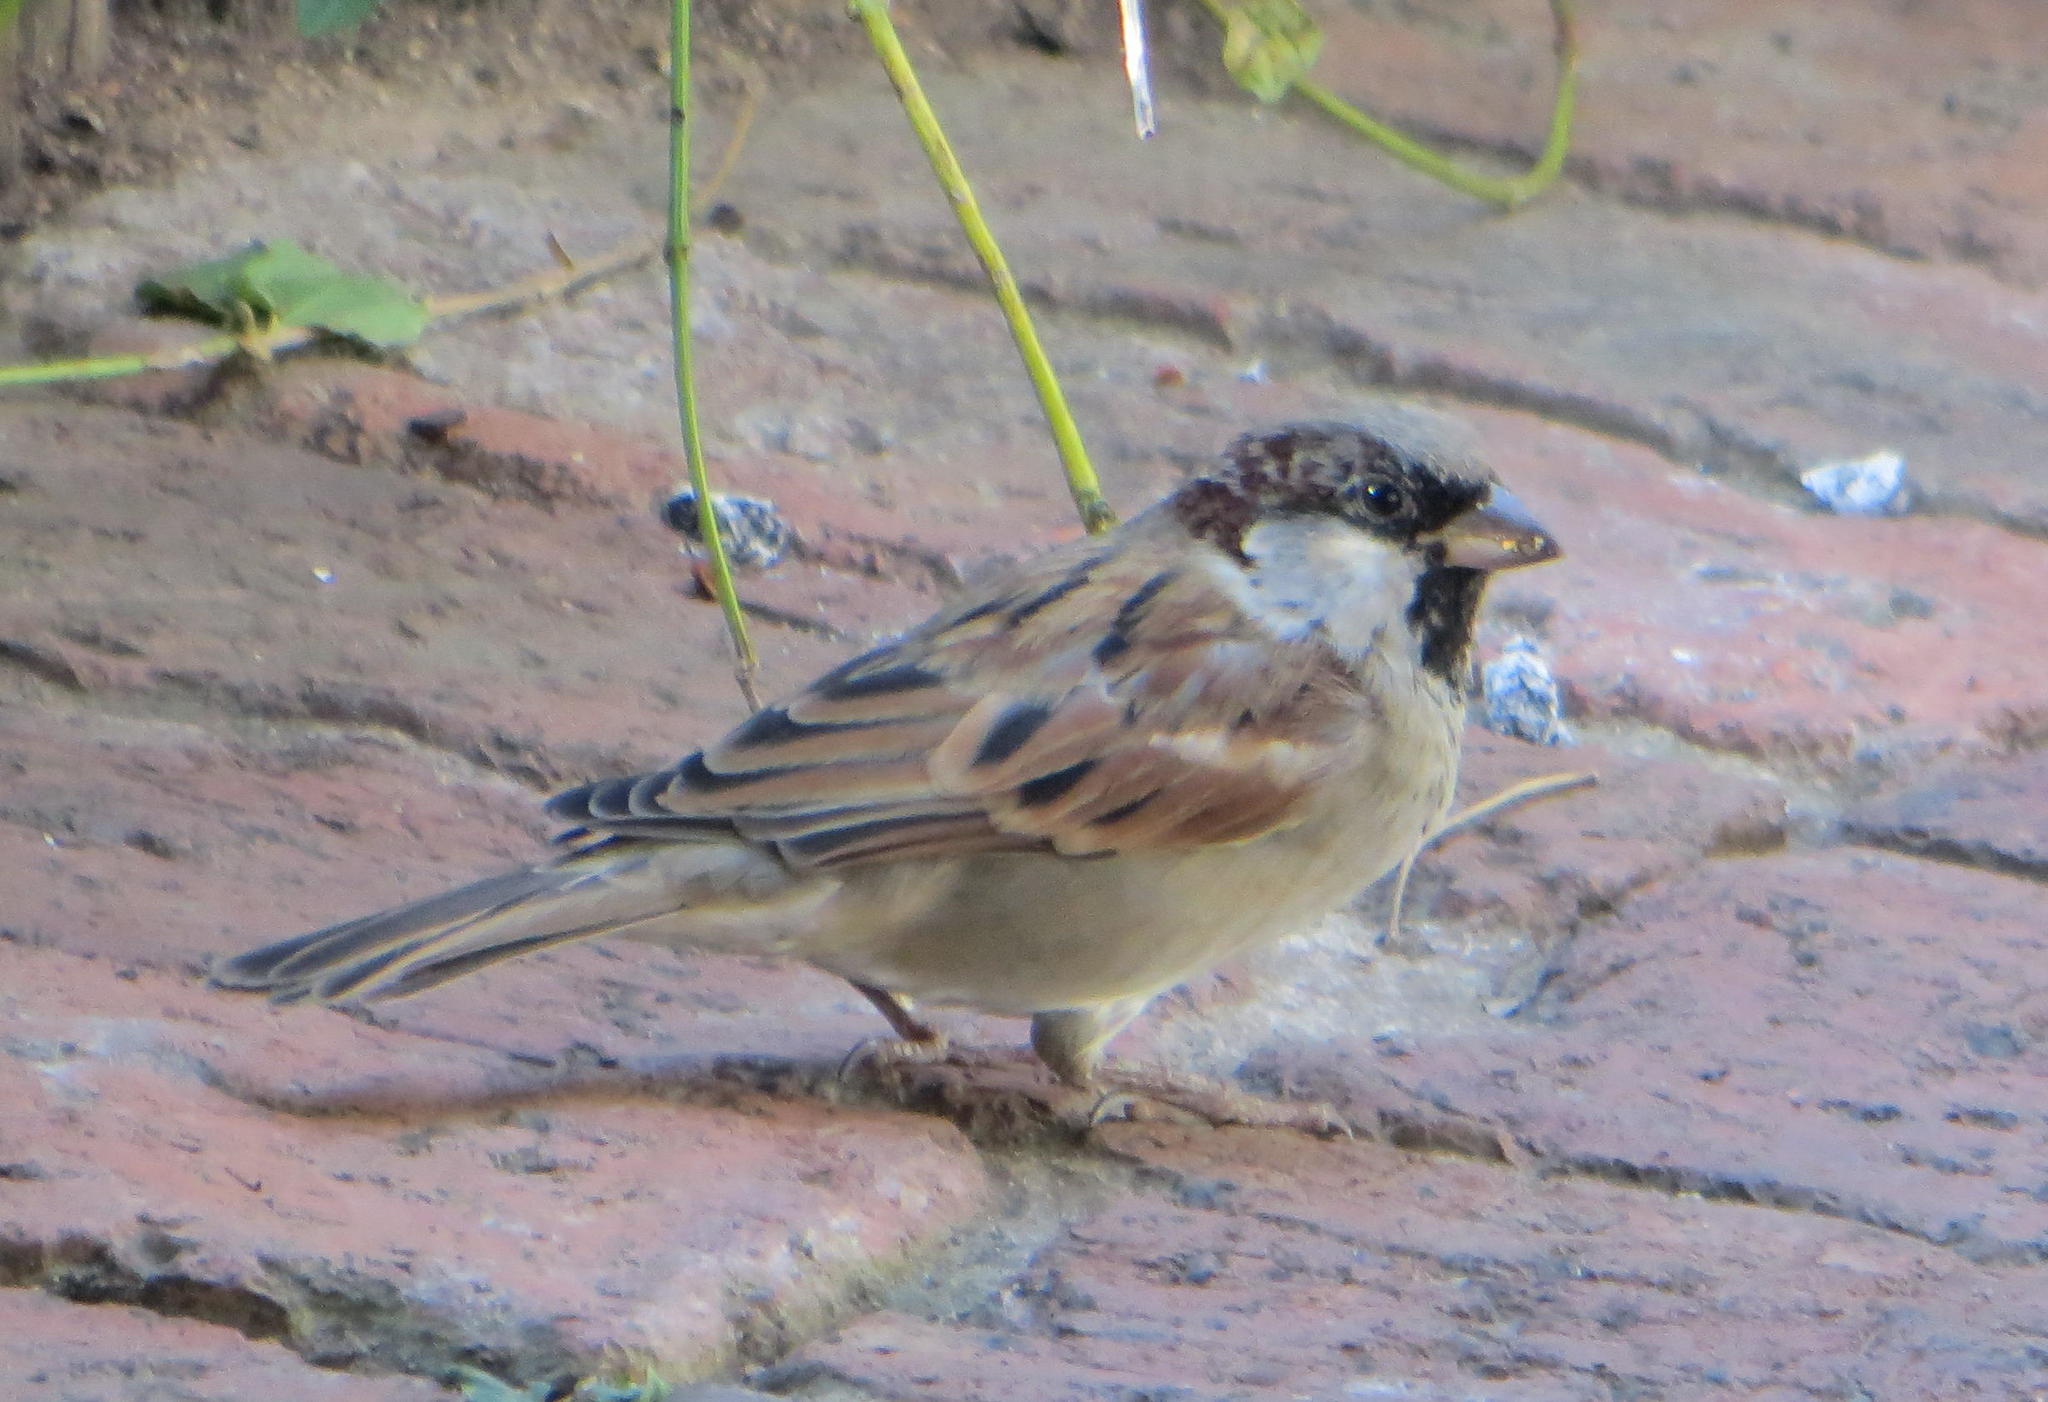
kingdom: Animalia
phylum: Chordata
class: Aves
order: Passeriformes
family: Passeridae
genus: Passer
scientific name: Passer domesticus
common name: House sparrow
